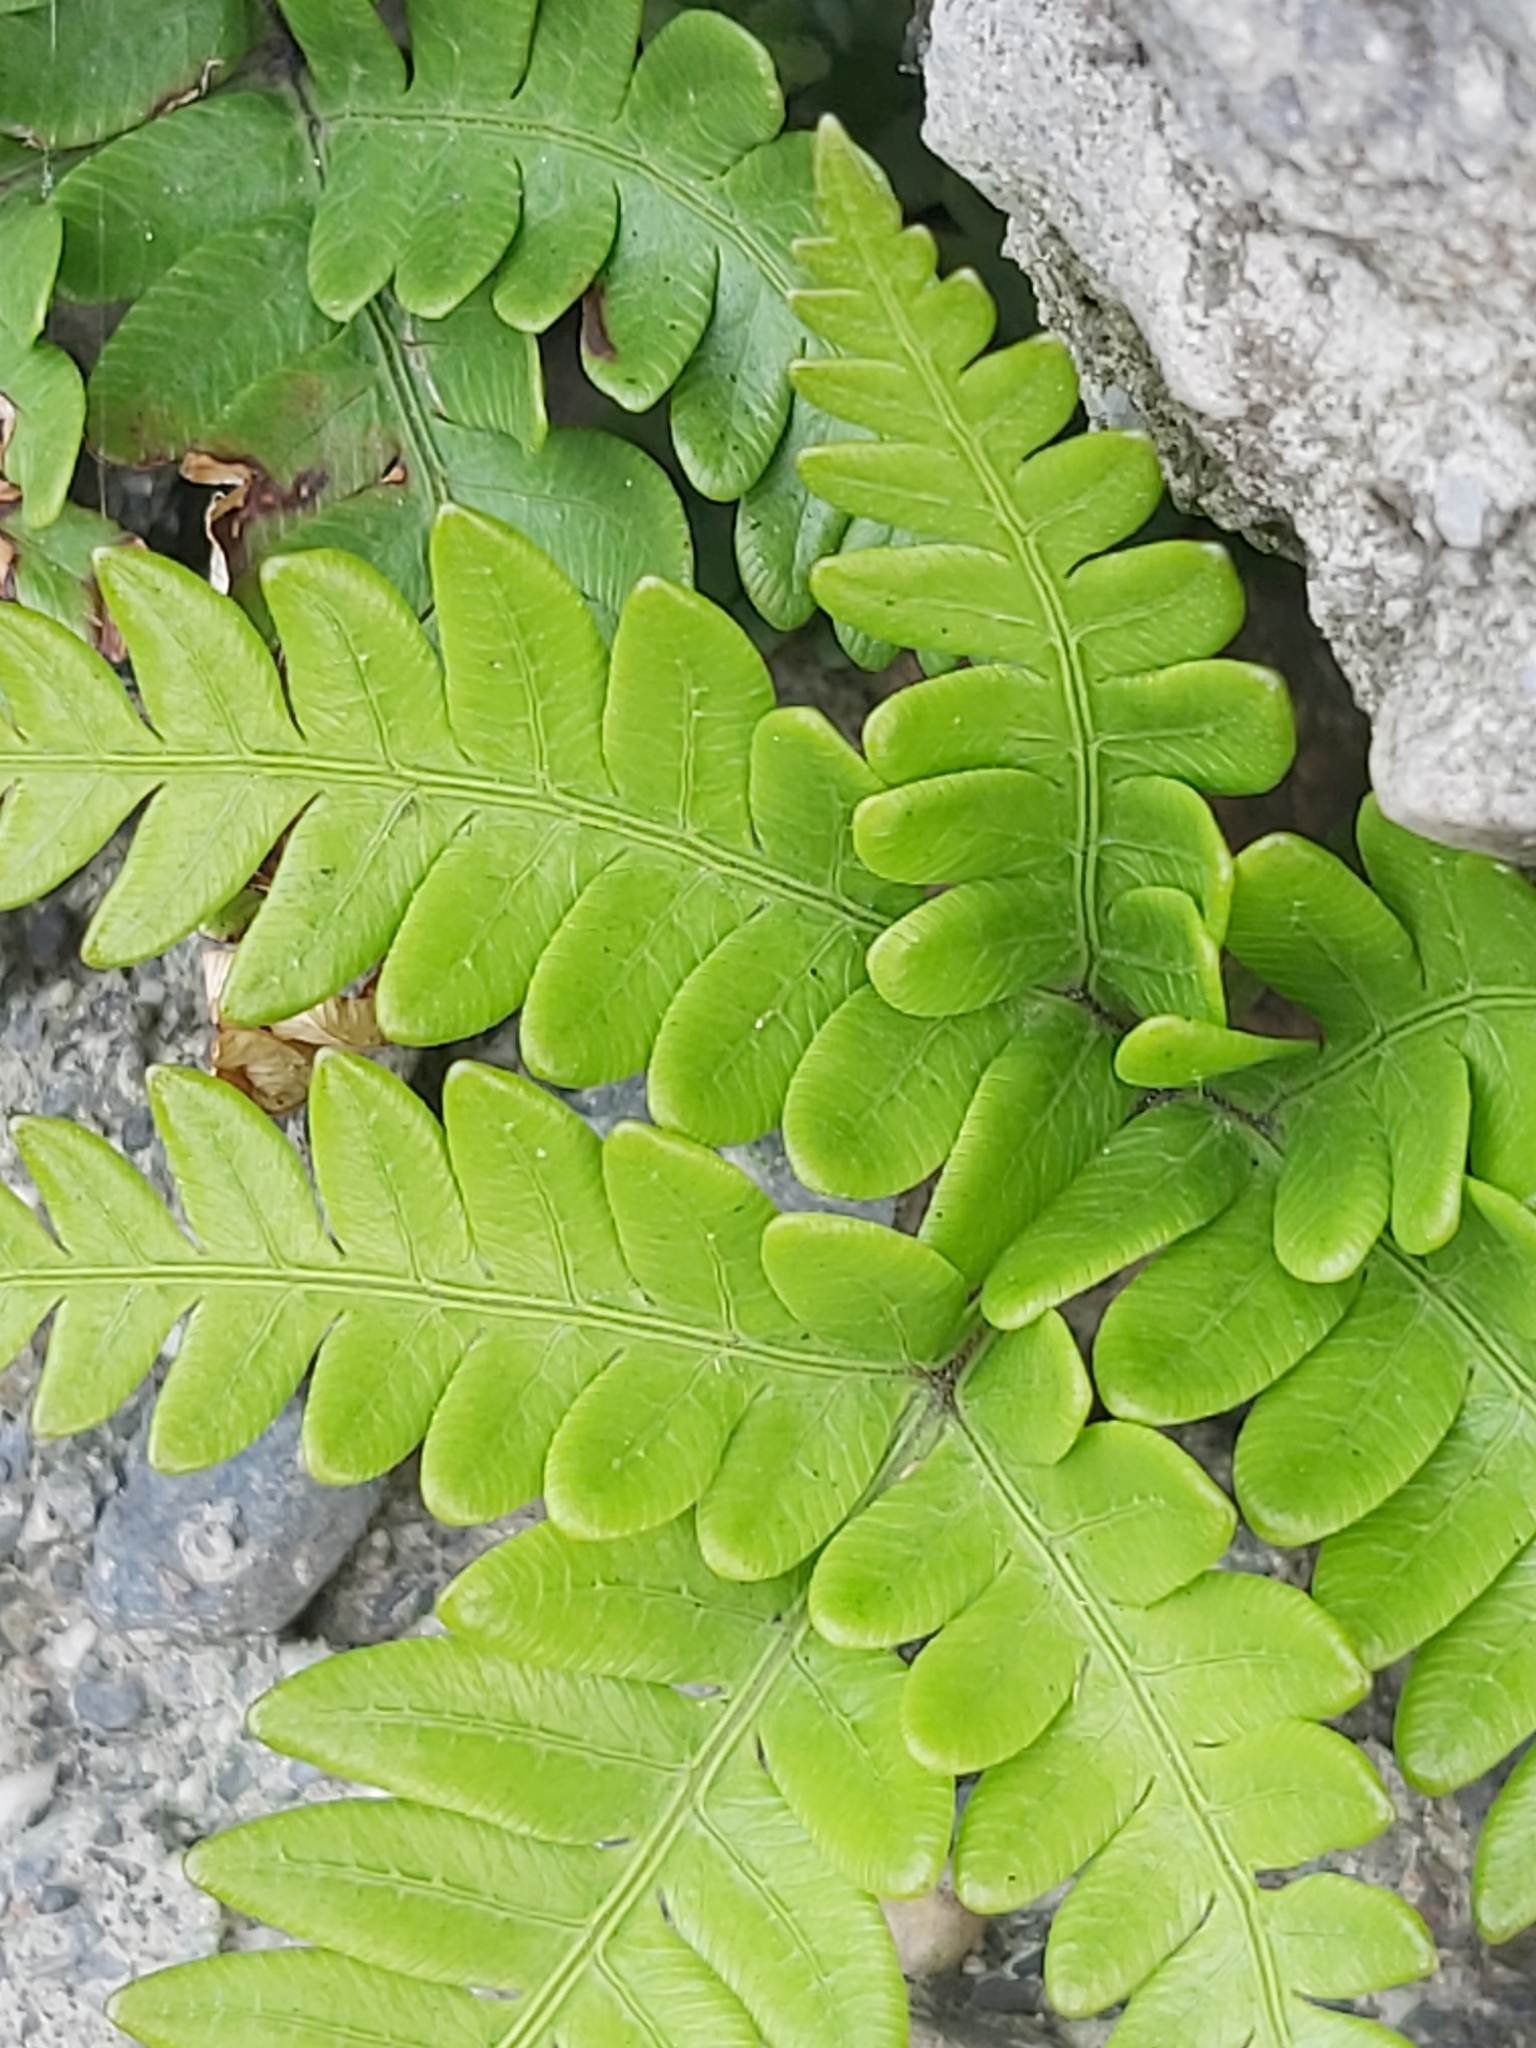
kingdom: Plantae
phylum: Tracheophyta
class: Polypodiopsida
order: Polypodiales
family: Pteridaceae
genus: Pteris
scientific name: Pteris fauriei
